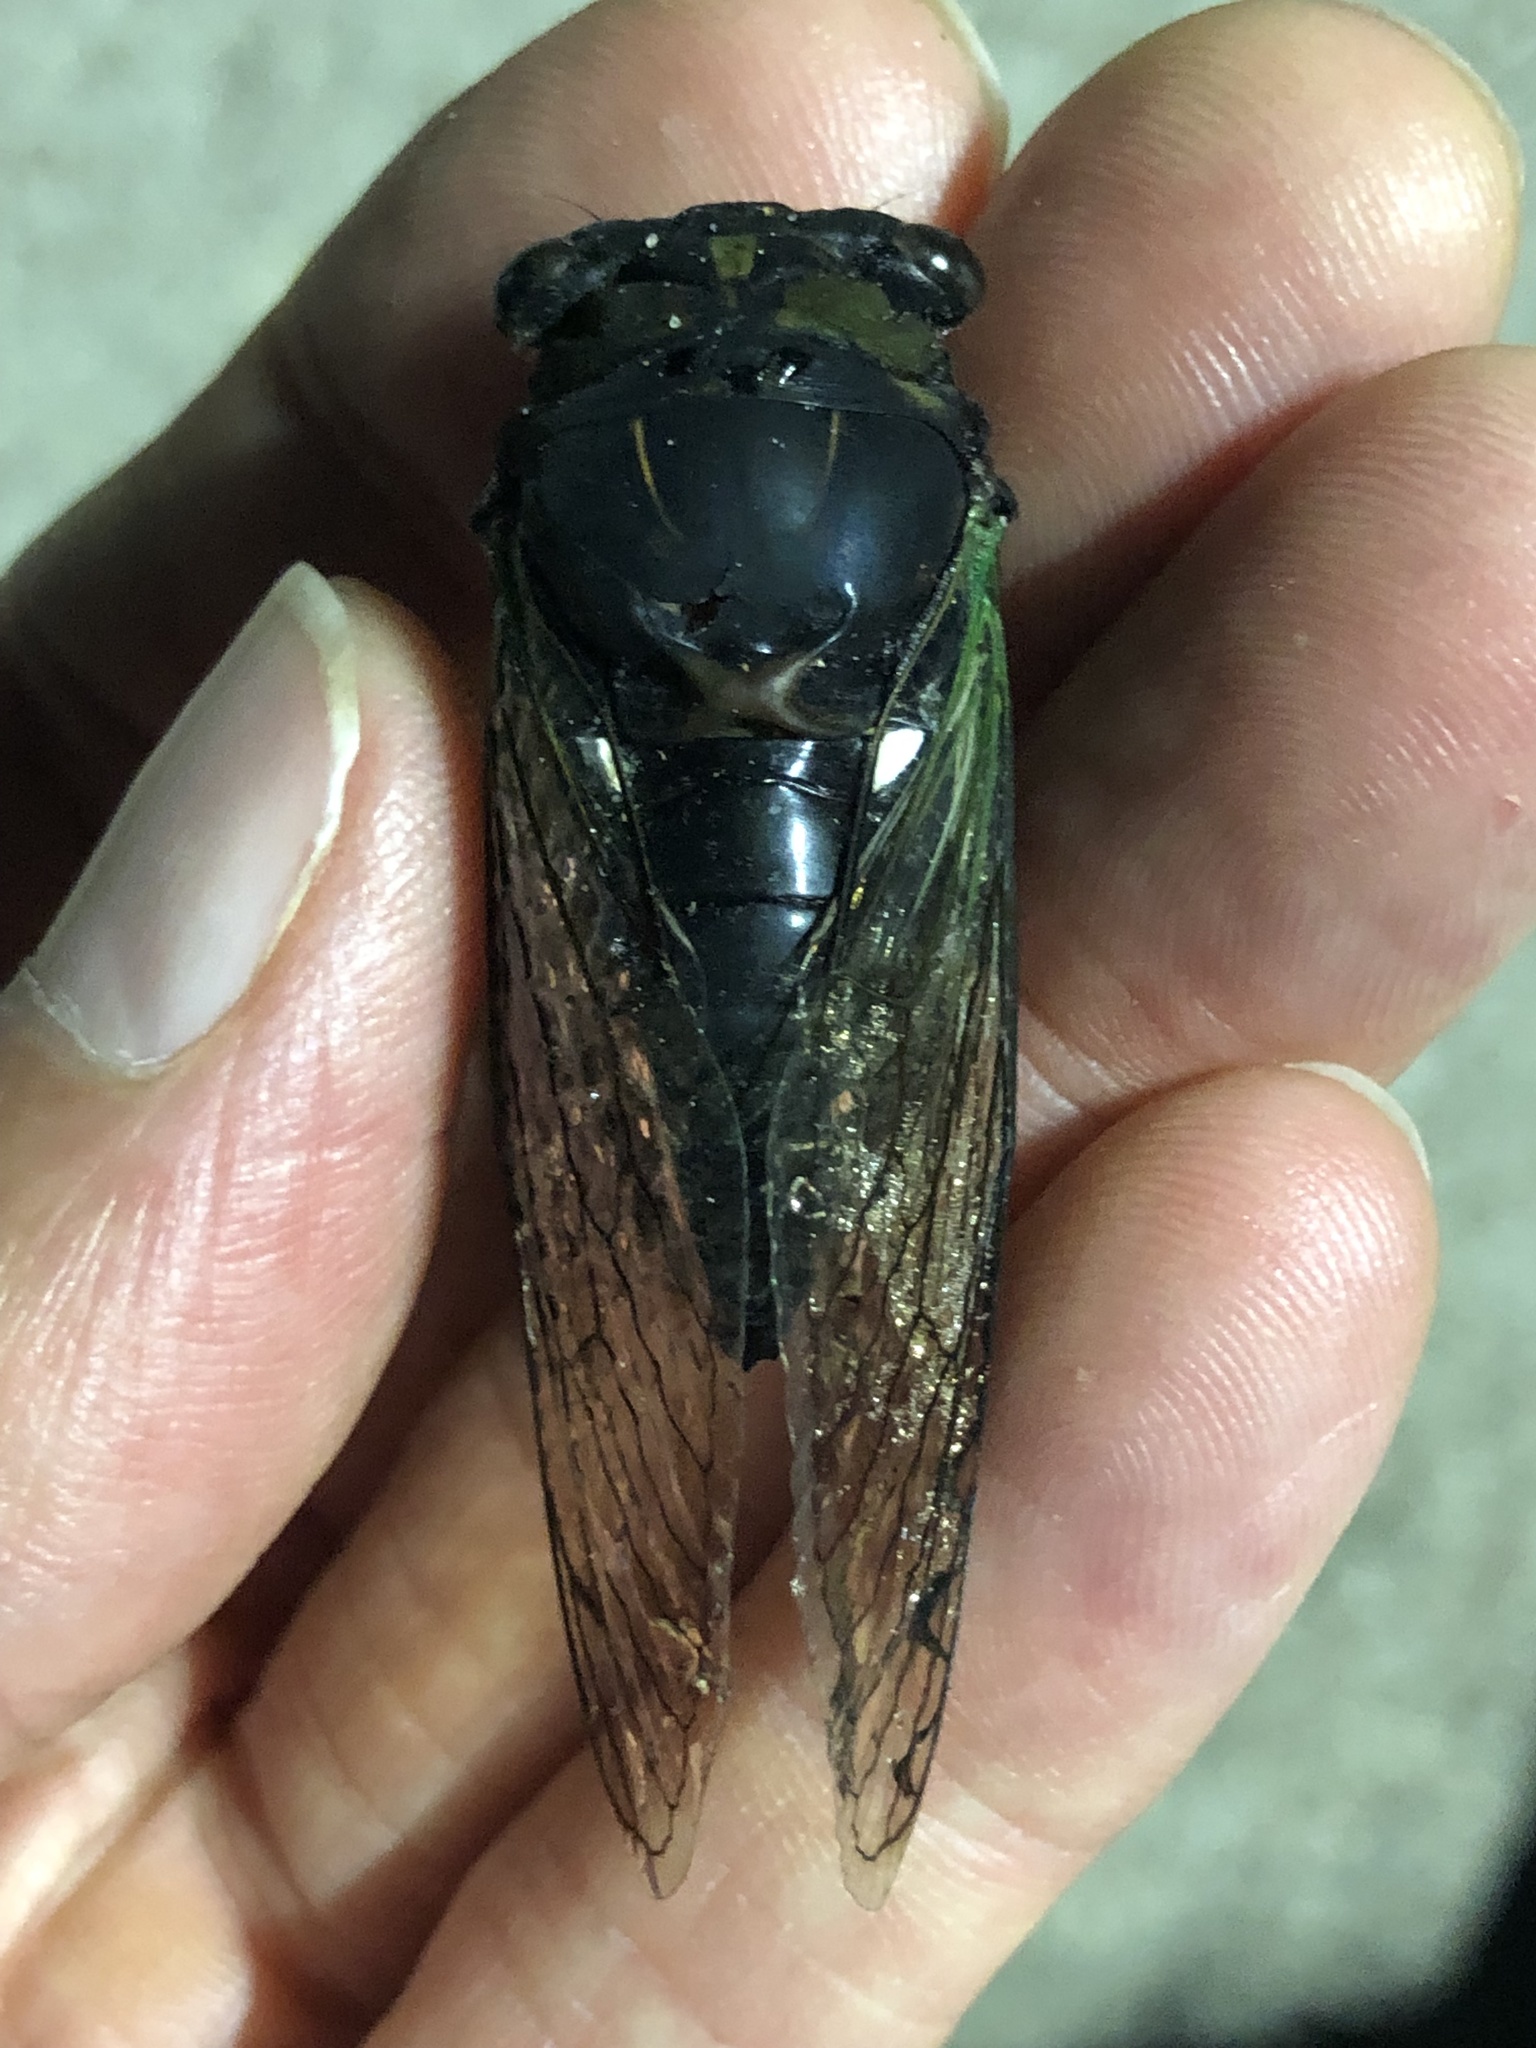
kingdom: Animalia
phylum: Arthropoda
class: Insecta
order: Hemiptera
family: Cicadidae
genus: Neotibicen
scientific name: Neotibicen tibicen
